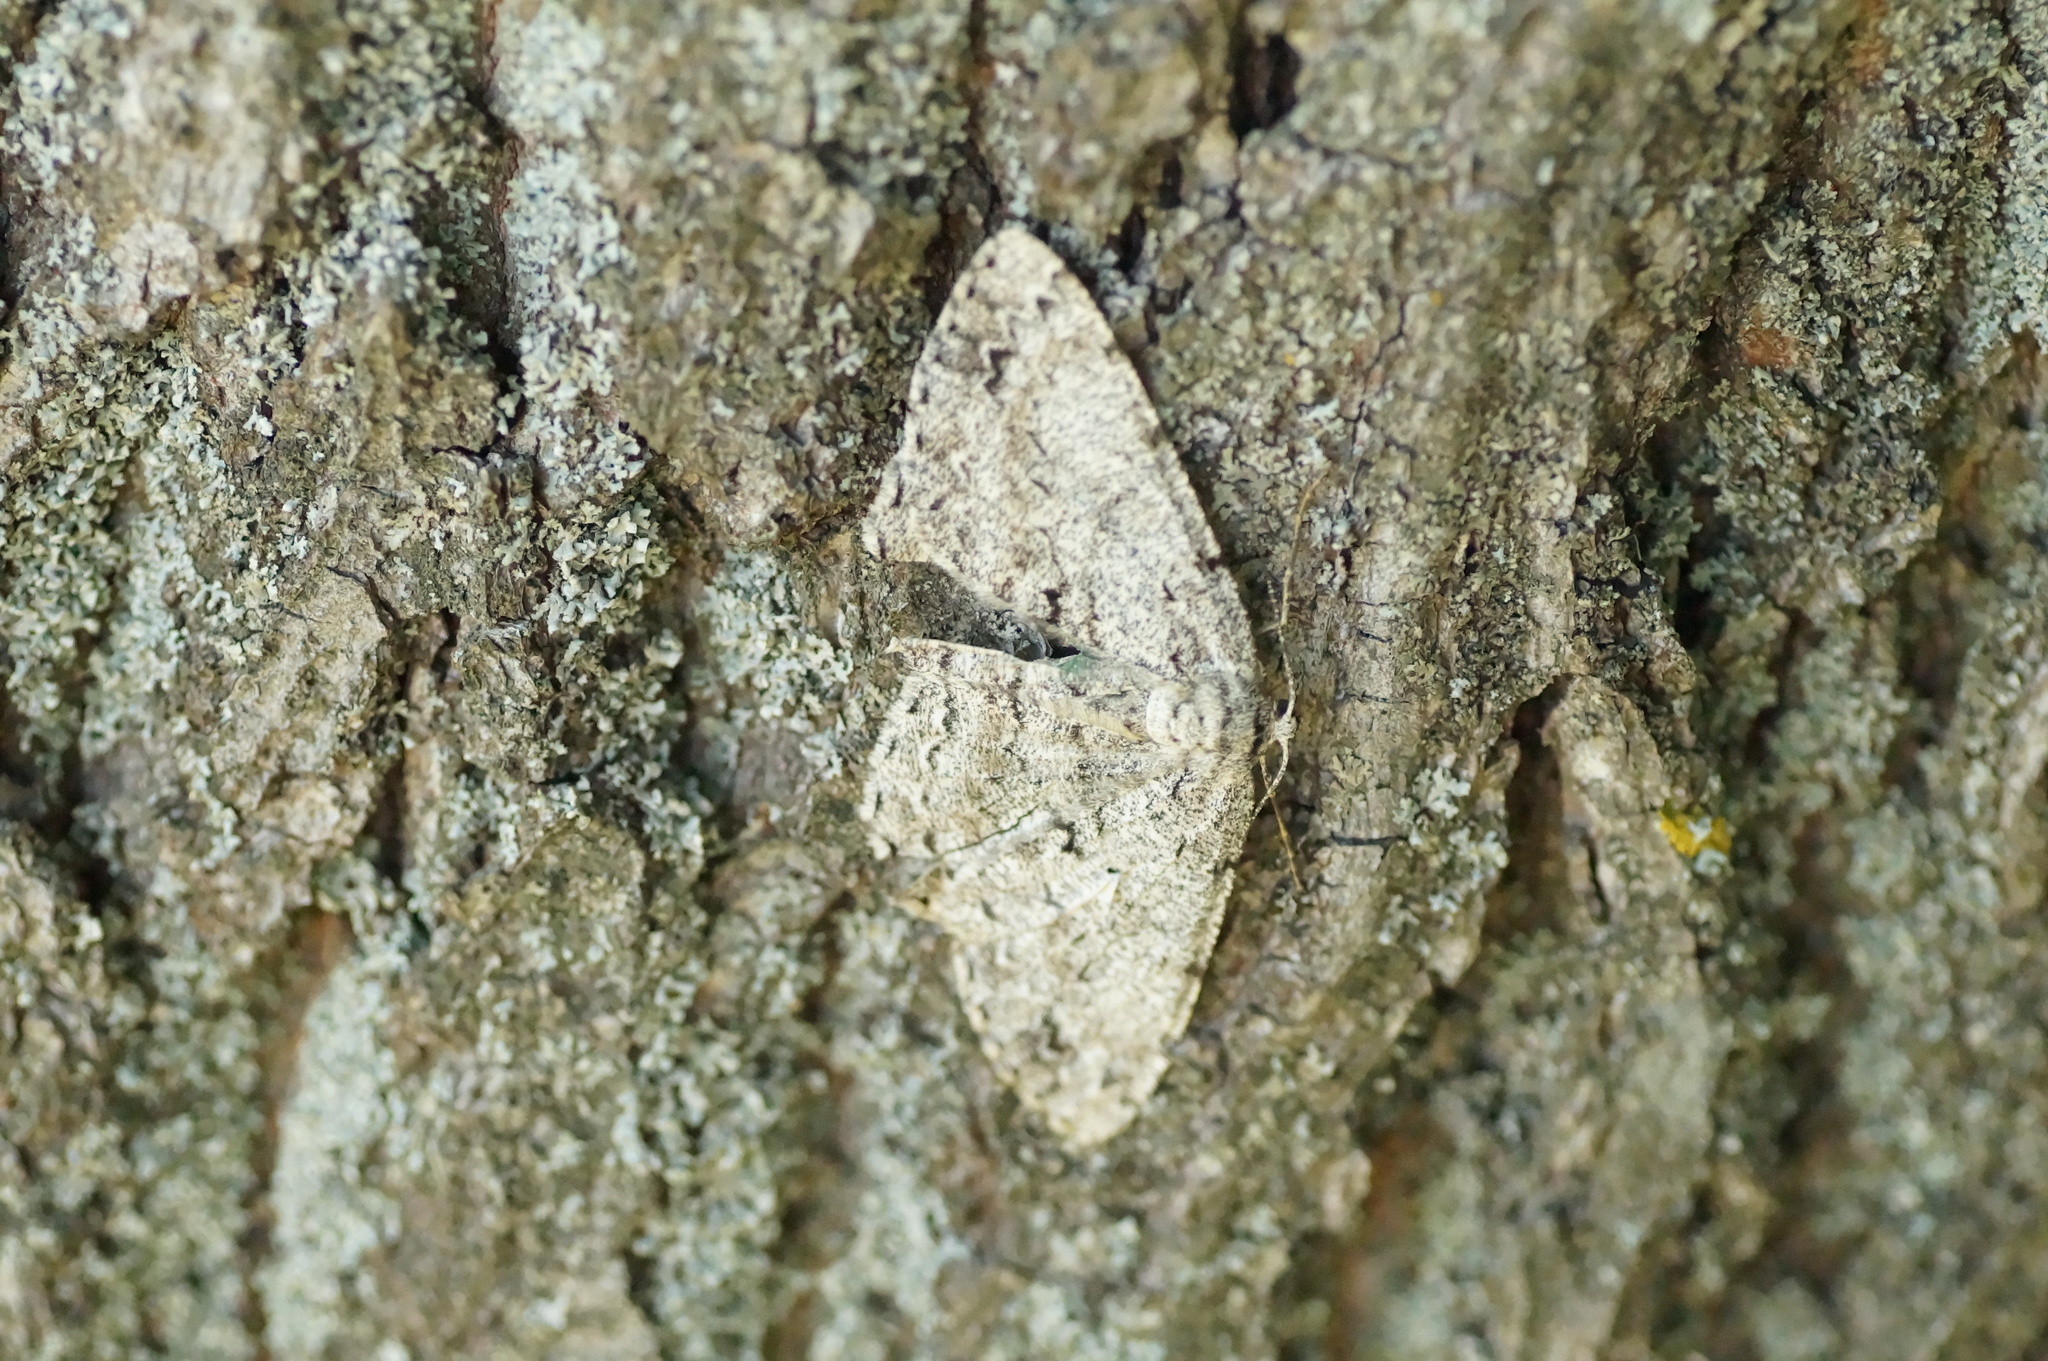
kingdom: Animalia
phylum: Arthropoda
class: Insecta
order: Lepidoptera
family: Geometridae
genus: Ectropis
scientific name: Ectropis crepuscularia
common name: Engrailed
